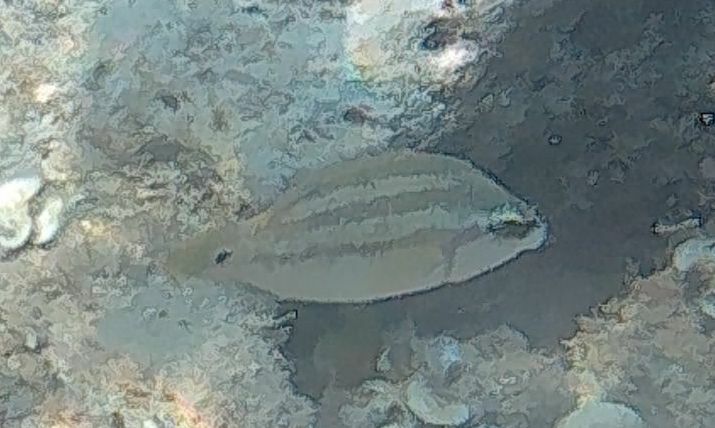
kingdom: Animalia
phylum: Chordata
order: Perciformes
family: Labridae
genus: Symphodus
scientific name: Symphodus tinca
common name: Peacock wrasse
